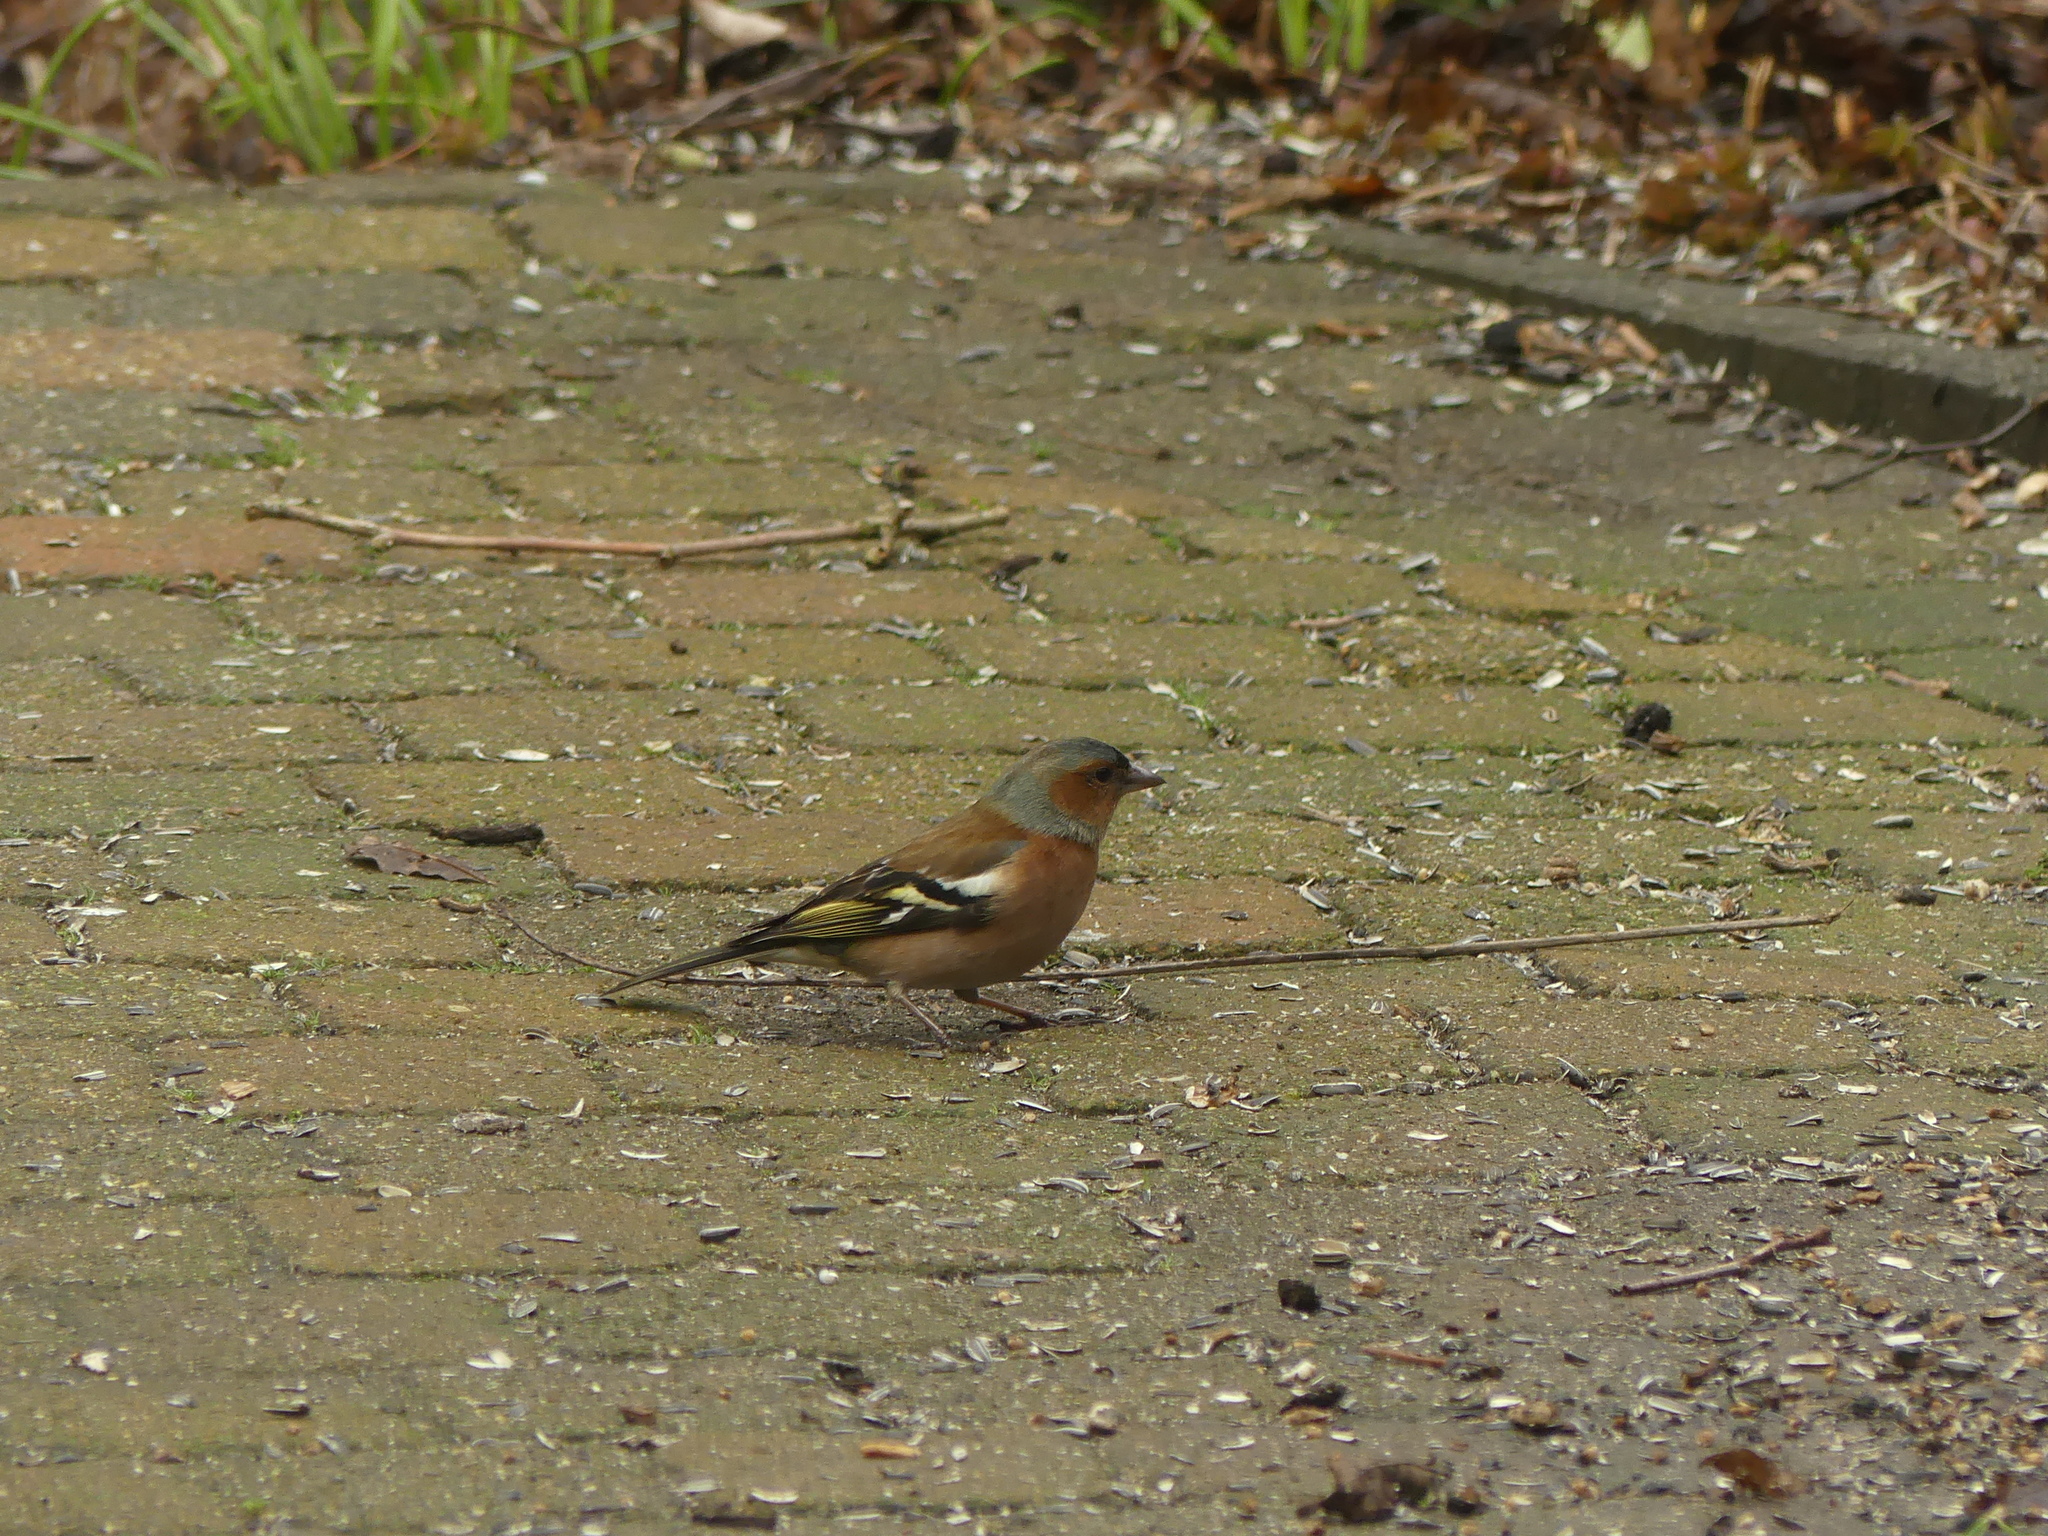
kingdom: Animalia
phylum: Chordata
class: Aves
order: Passeriformes
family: Fringillidae
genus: Fringilla
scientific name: Fringilla coelebs
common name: Common chaffinch
